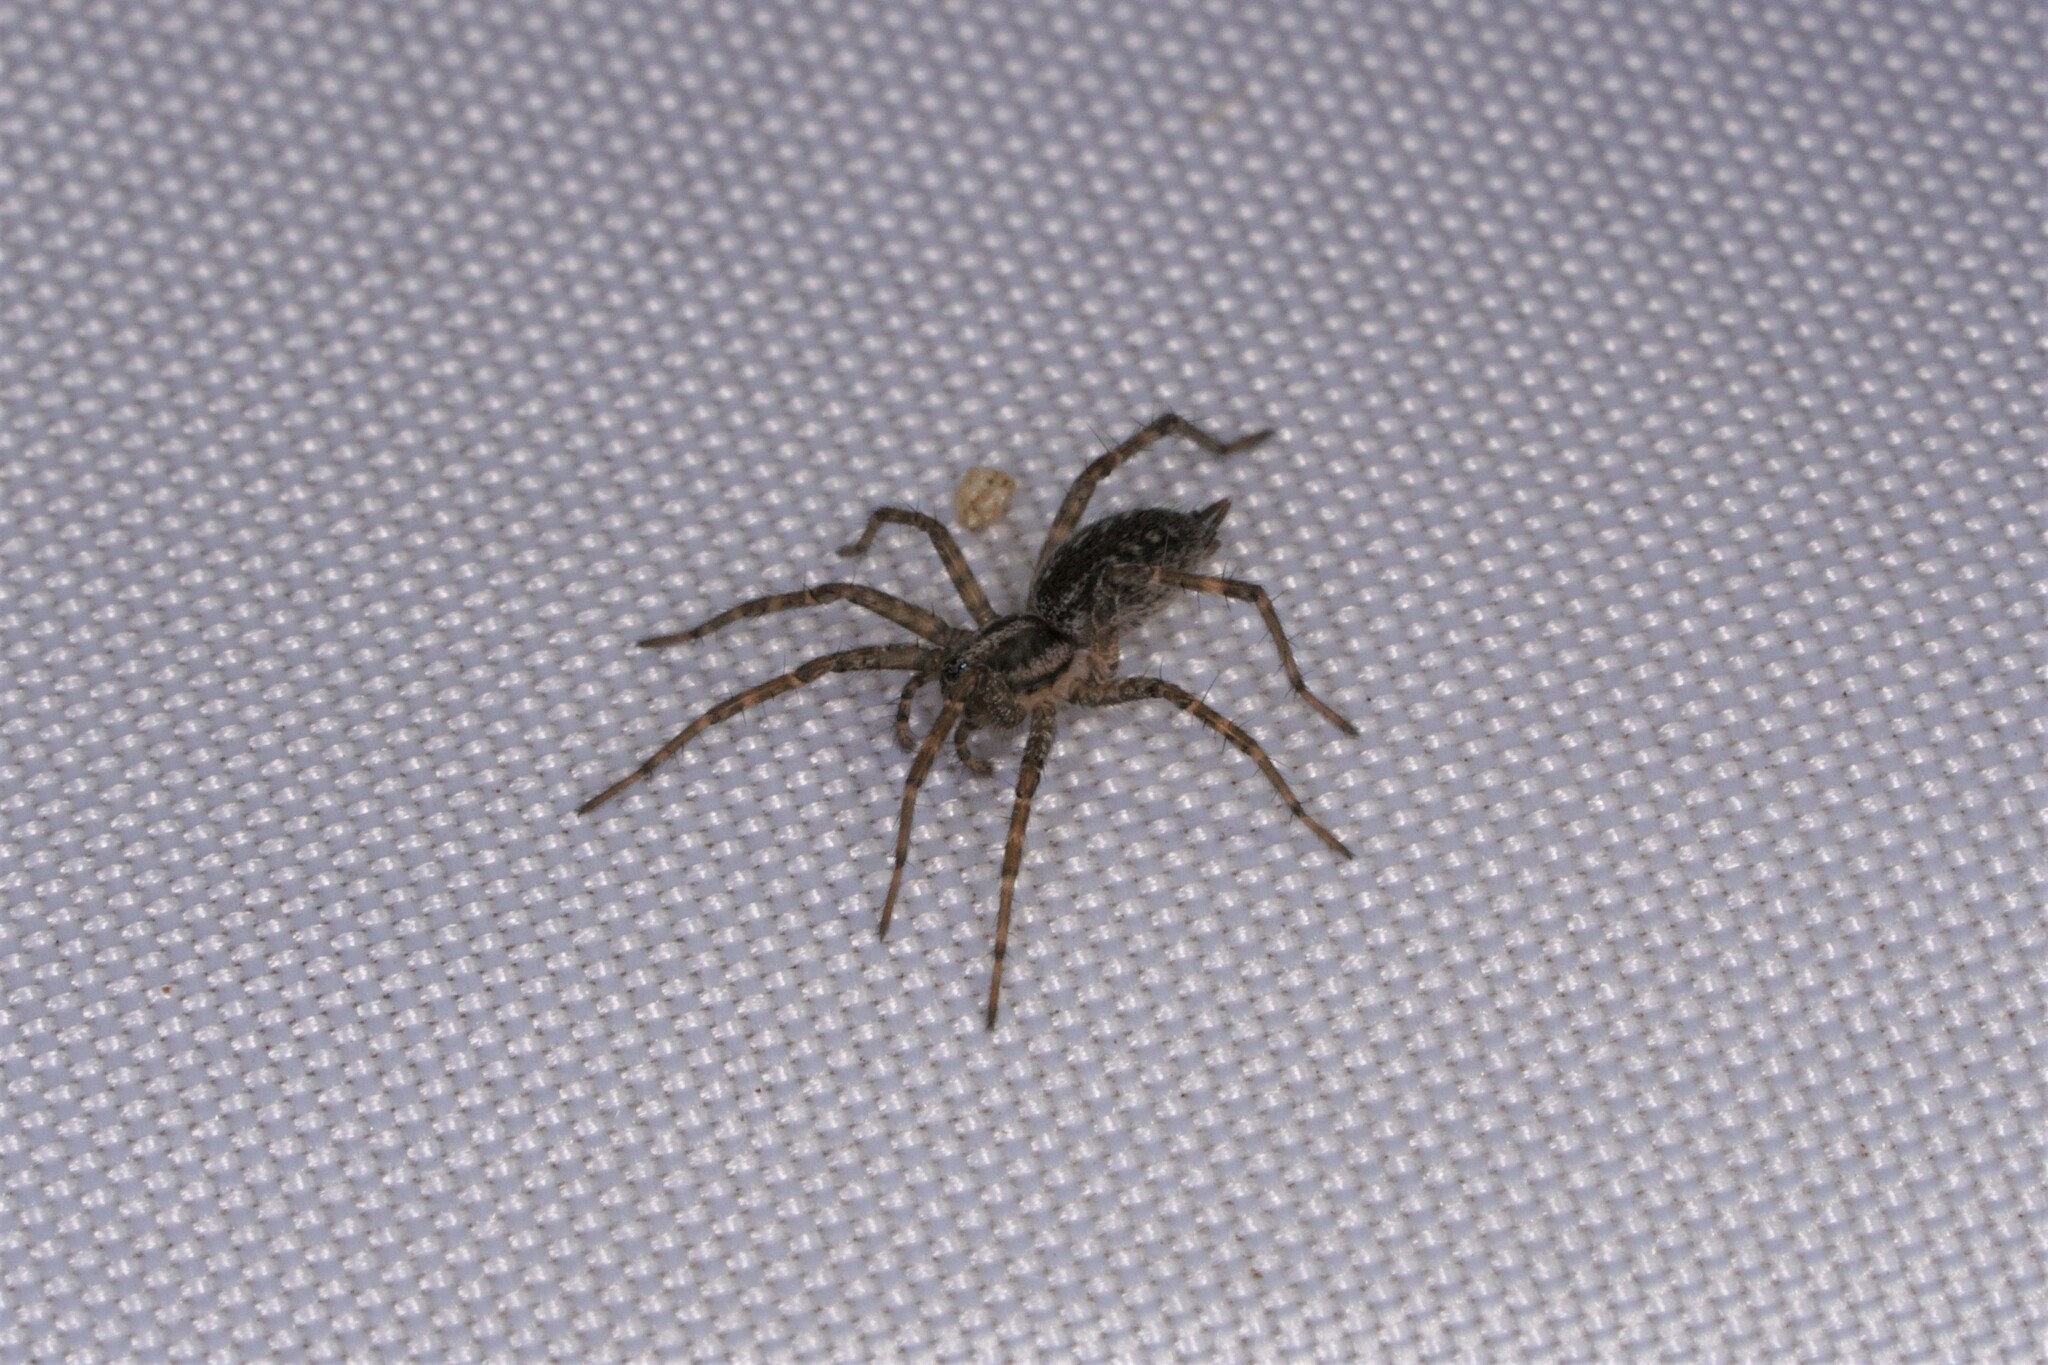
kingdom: Animalia
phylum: Arthropoda
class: Arachnida
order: Araneae
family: Agelenidae
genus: Agelenopsis
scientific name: Agelenopsis
